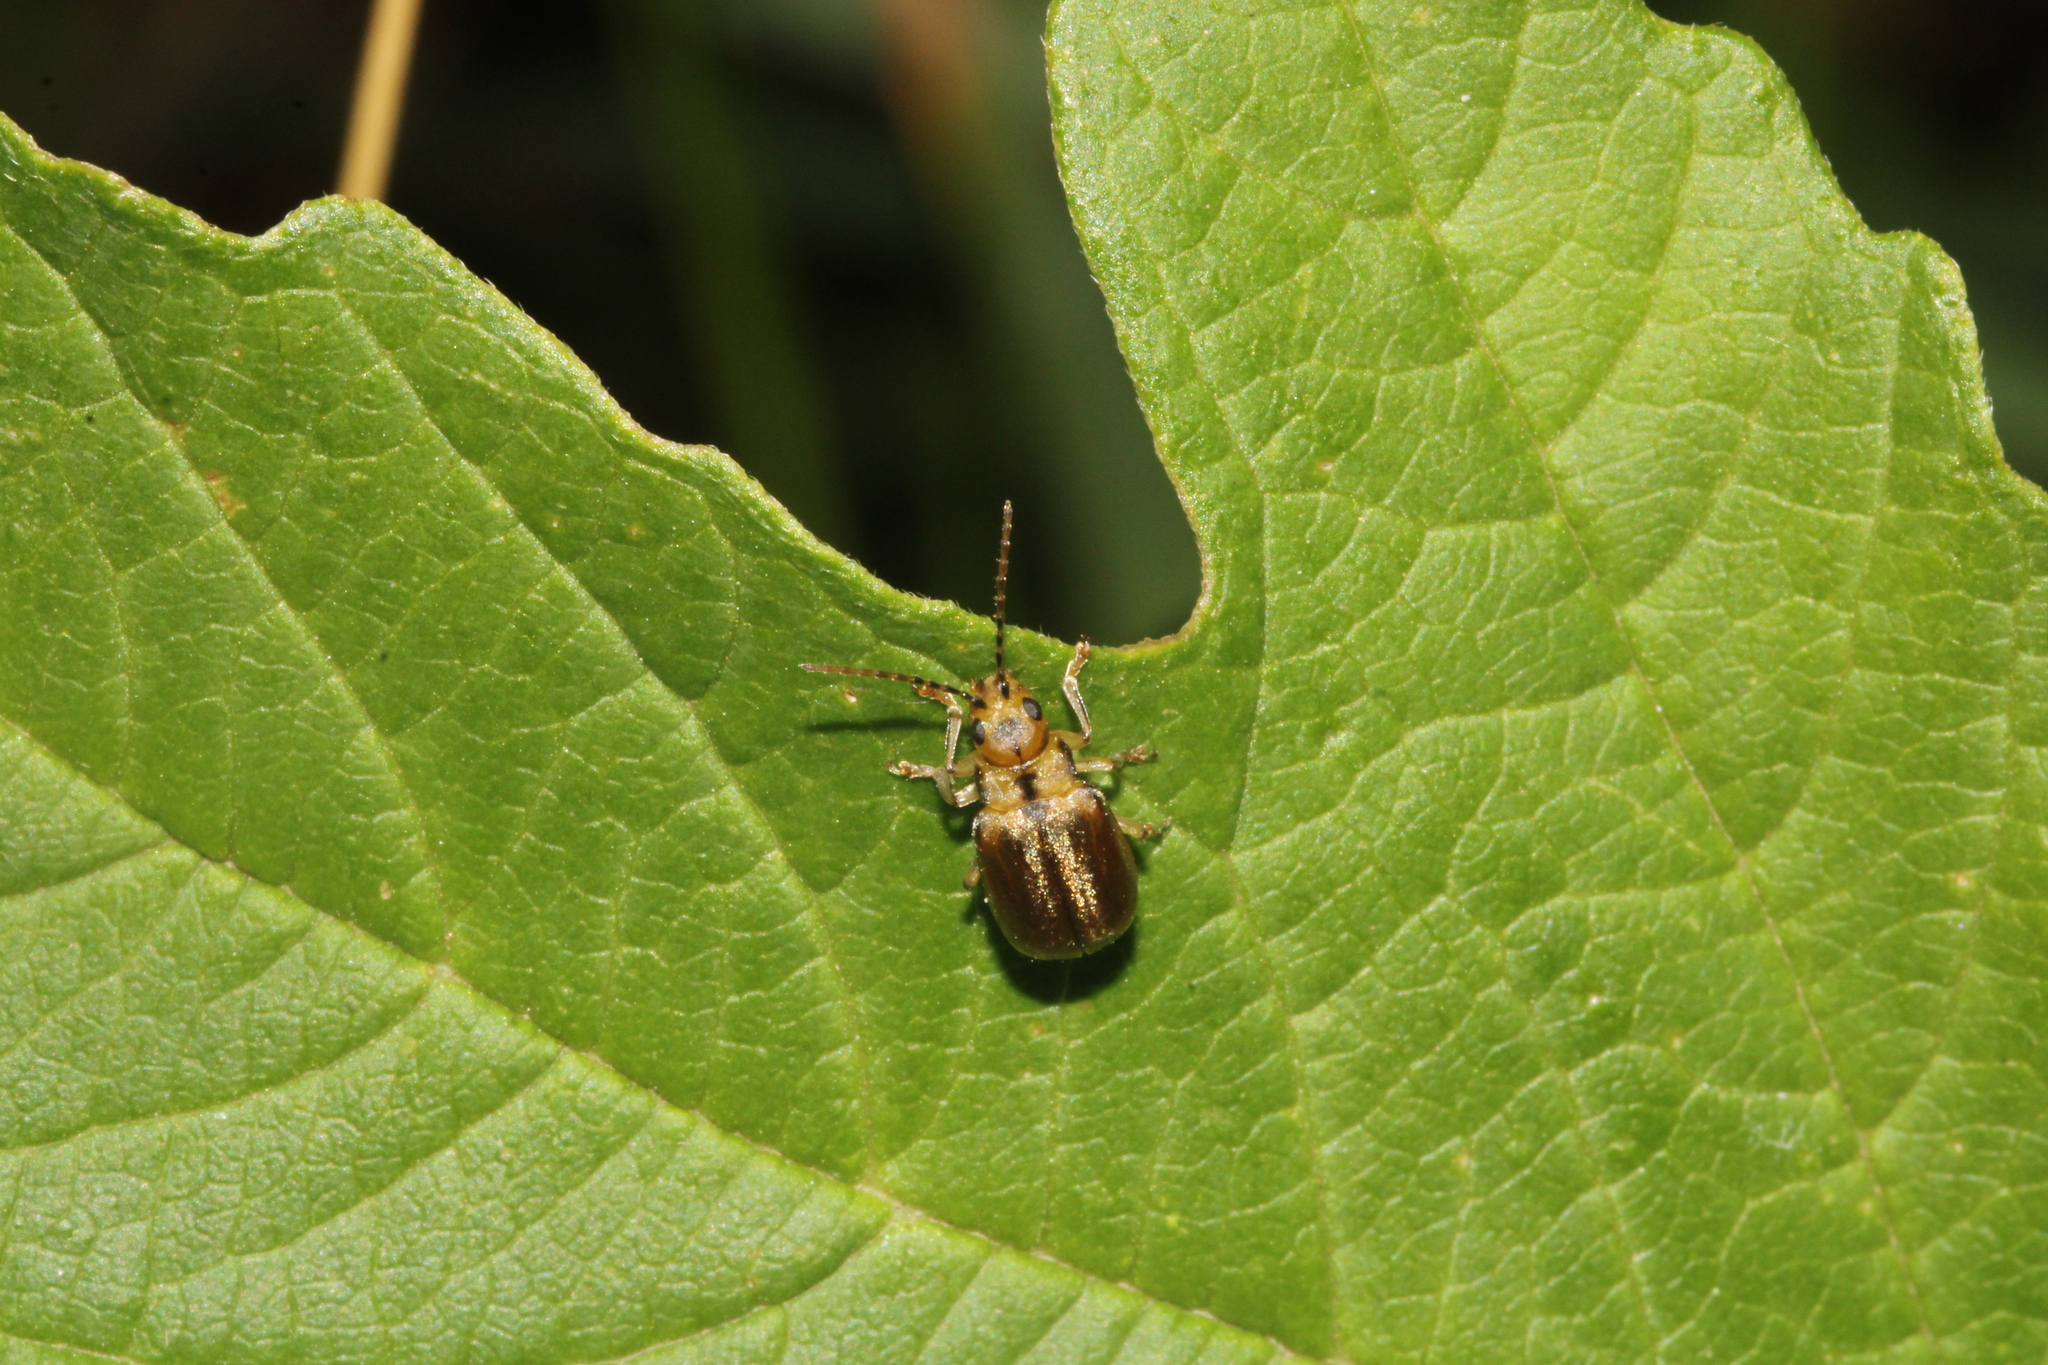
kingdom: Animalia
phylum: Arthropoda
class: Insecta
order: Coleoptera
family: Chrysomelidae
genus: Pyrrhalta
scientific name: Pyrrhalta viburni
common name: Guelder-rose leaf beetle
